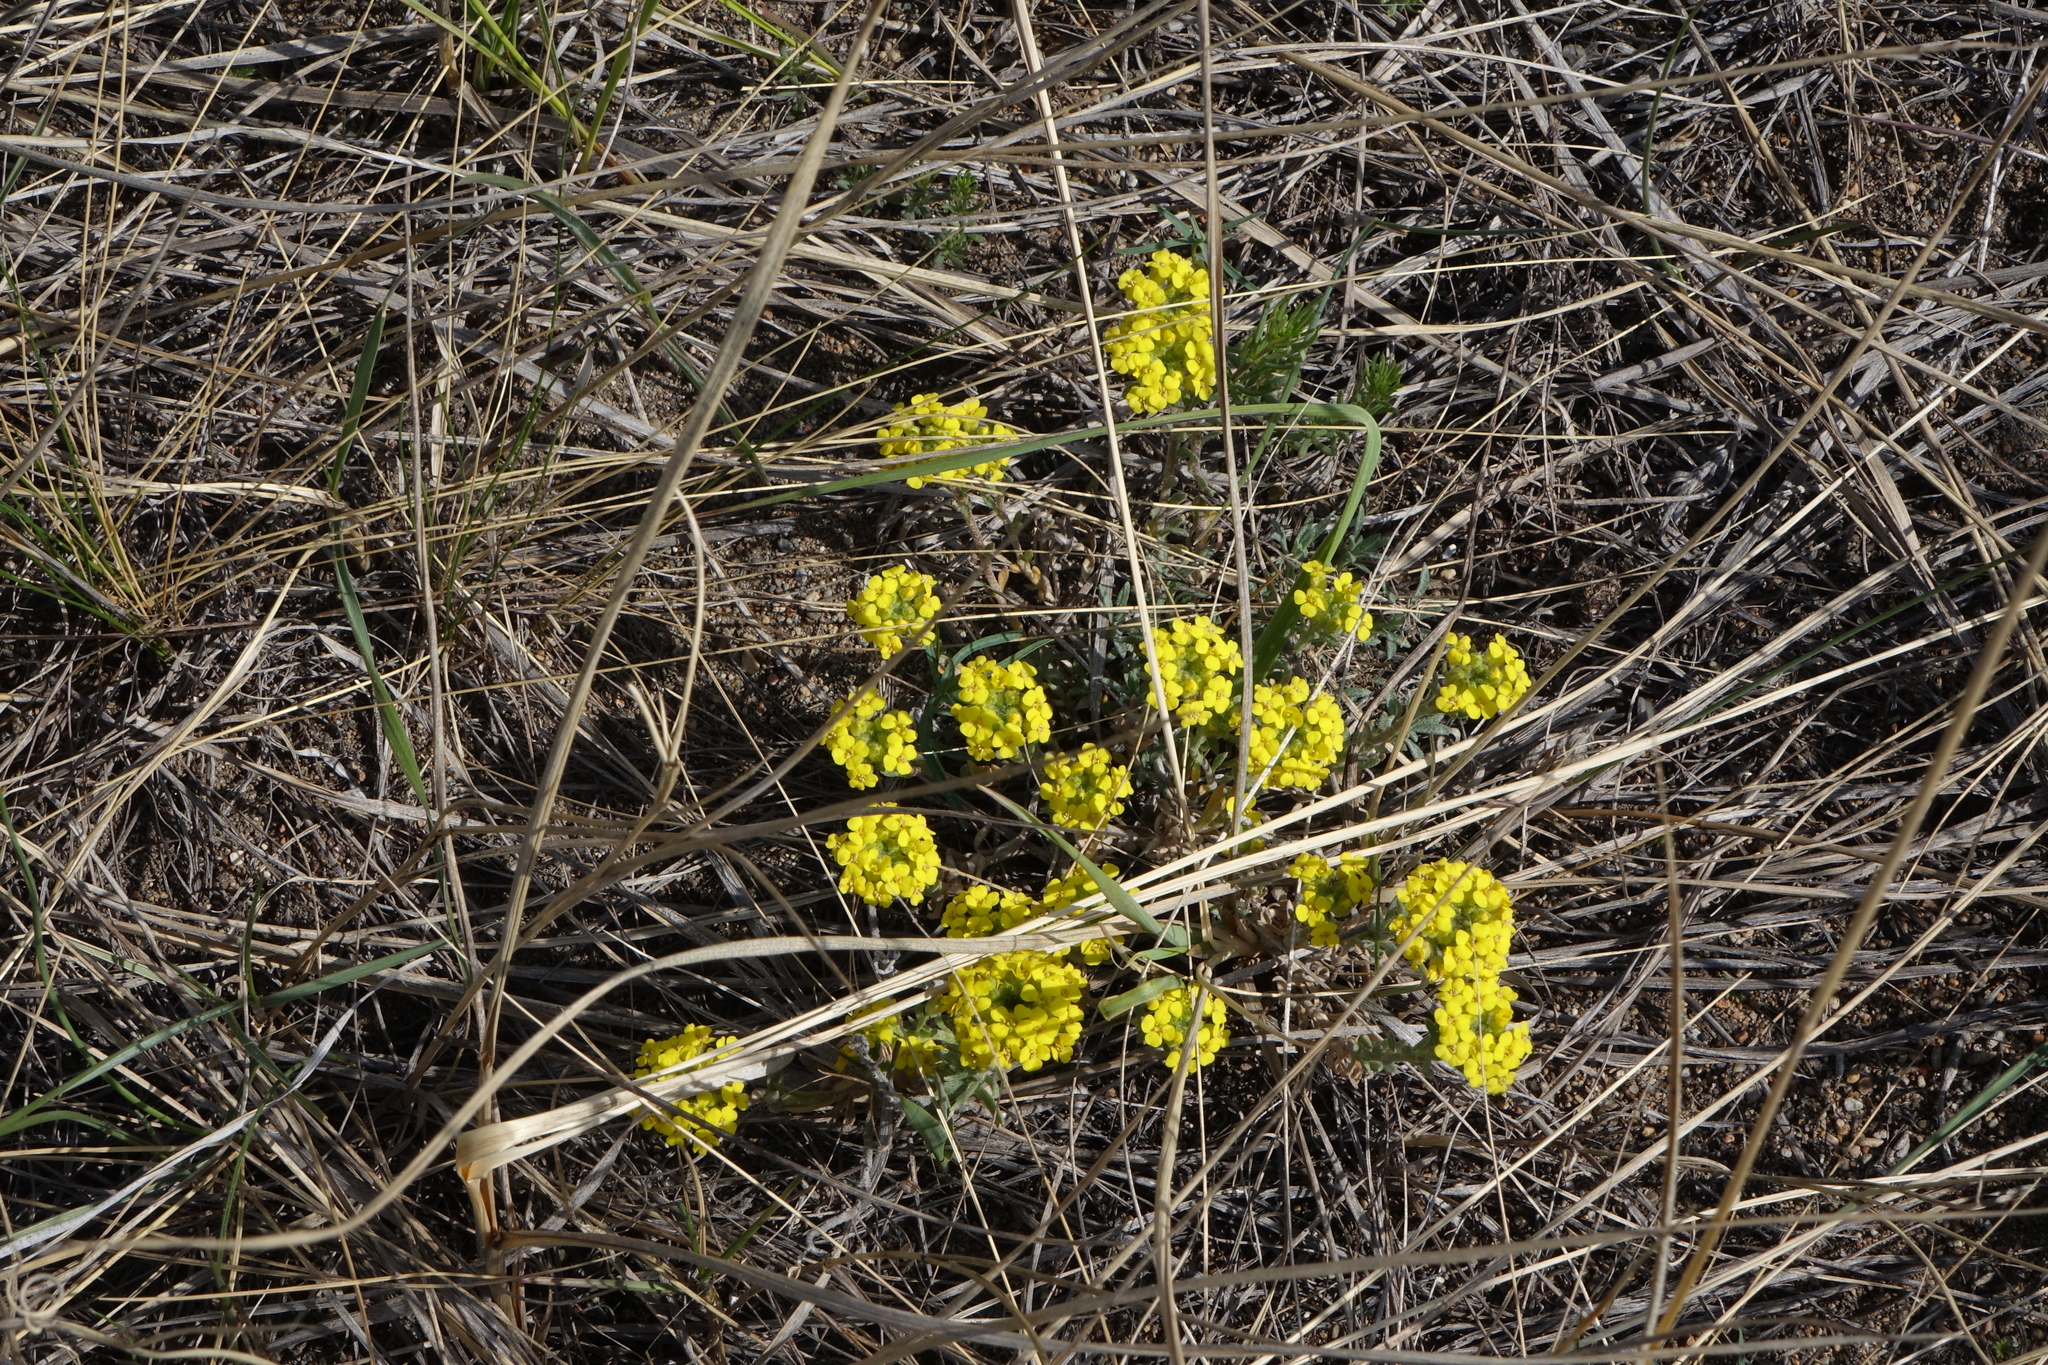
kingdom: Plantae
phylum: Tracheophyta
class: Magnoliopsida
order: Brassicales
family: Brassicaceae
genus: Alyssum
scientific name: Alyssum lenense
